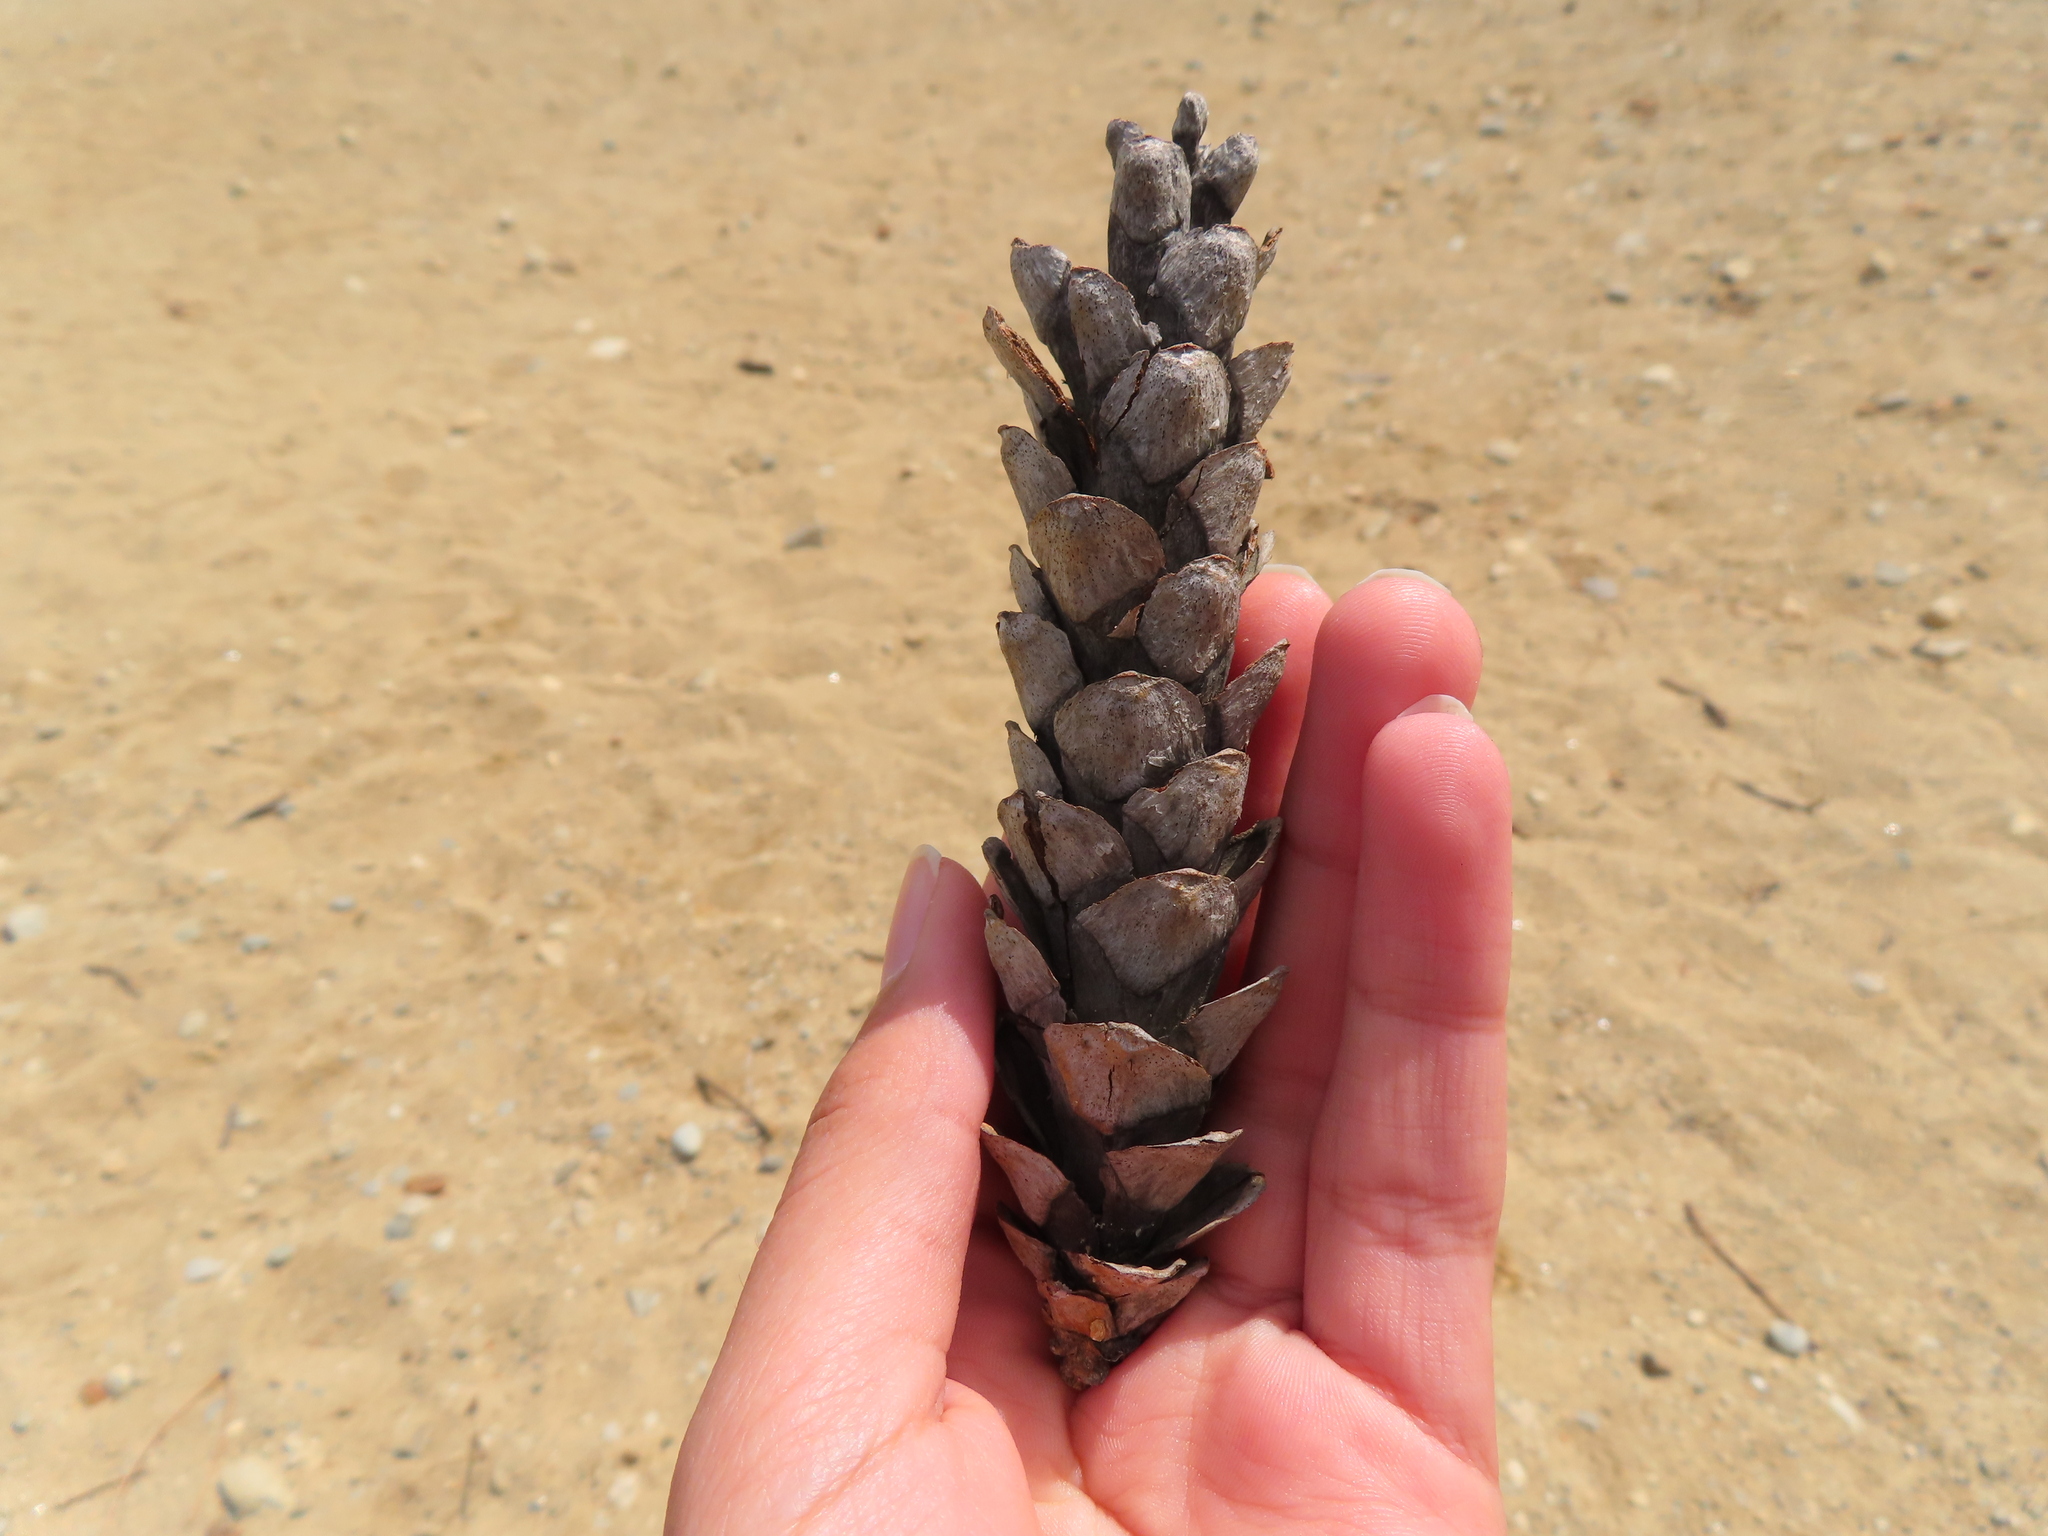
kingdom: Plantae
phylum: Tracheophyta
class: Pinopsida
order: Pinales
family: Pinaceae
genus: Pinus
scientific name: Pinus strobus
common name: Weymouth pine
